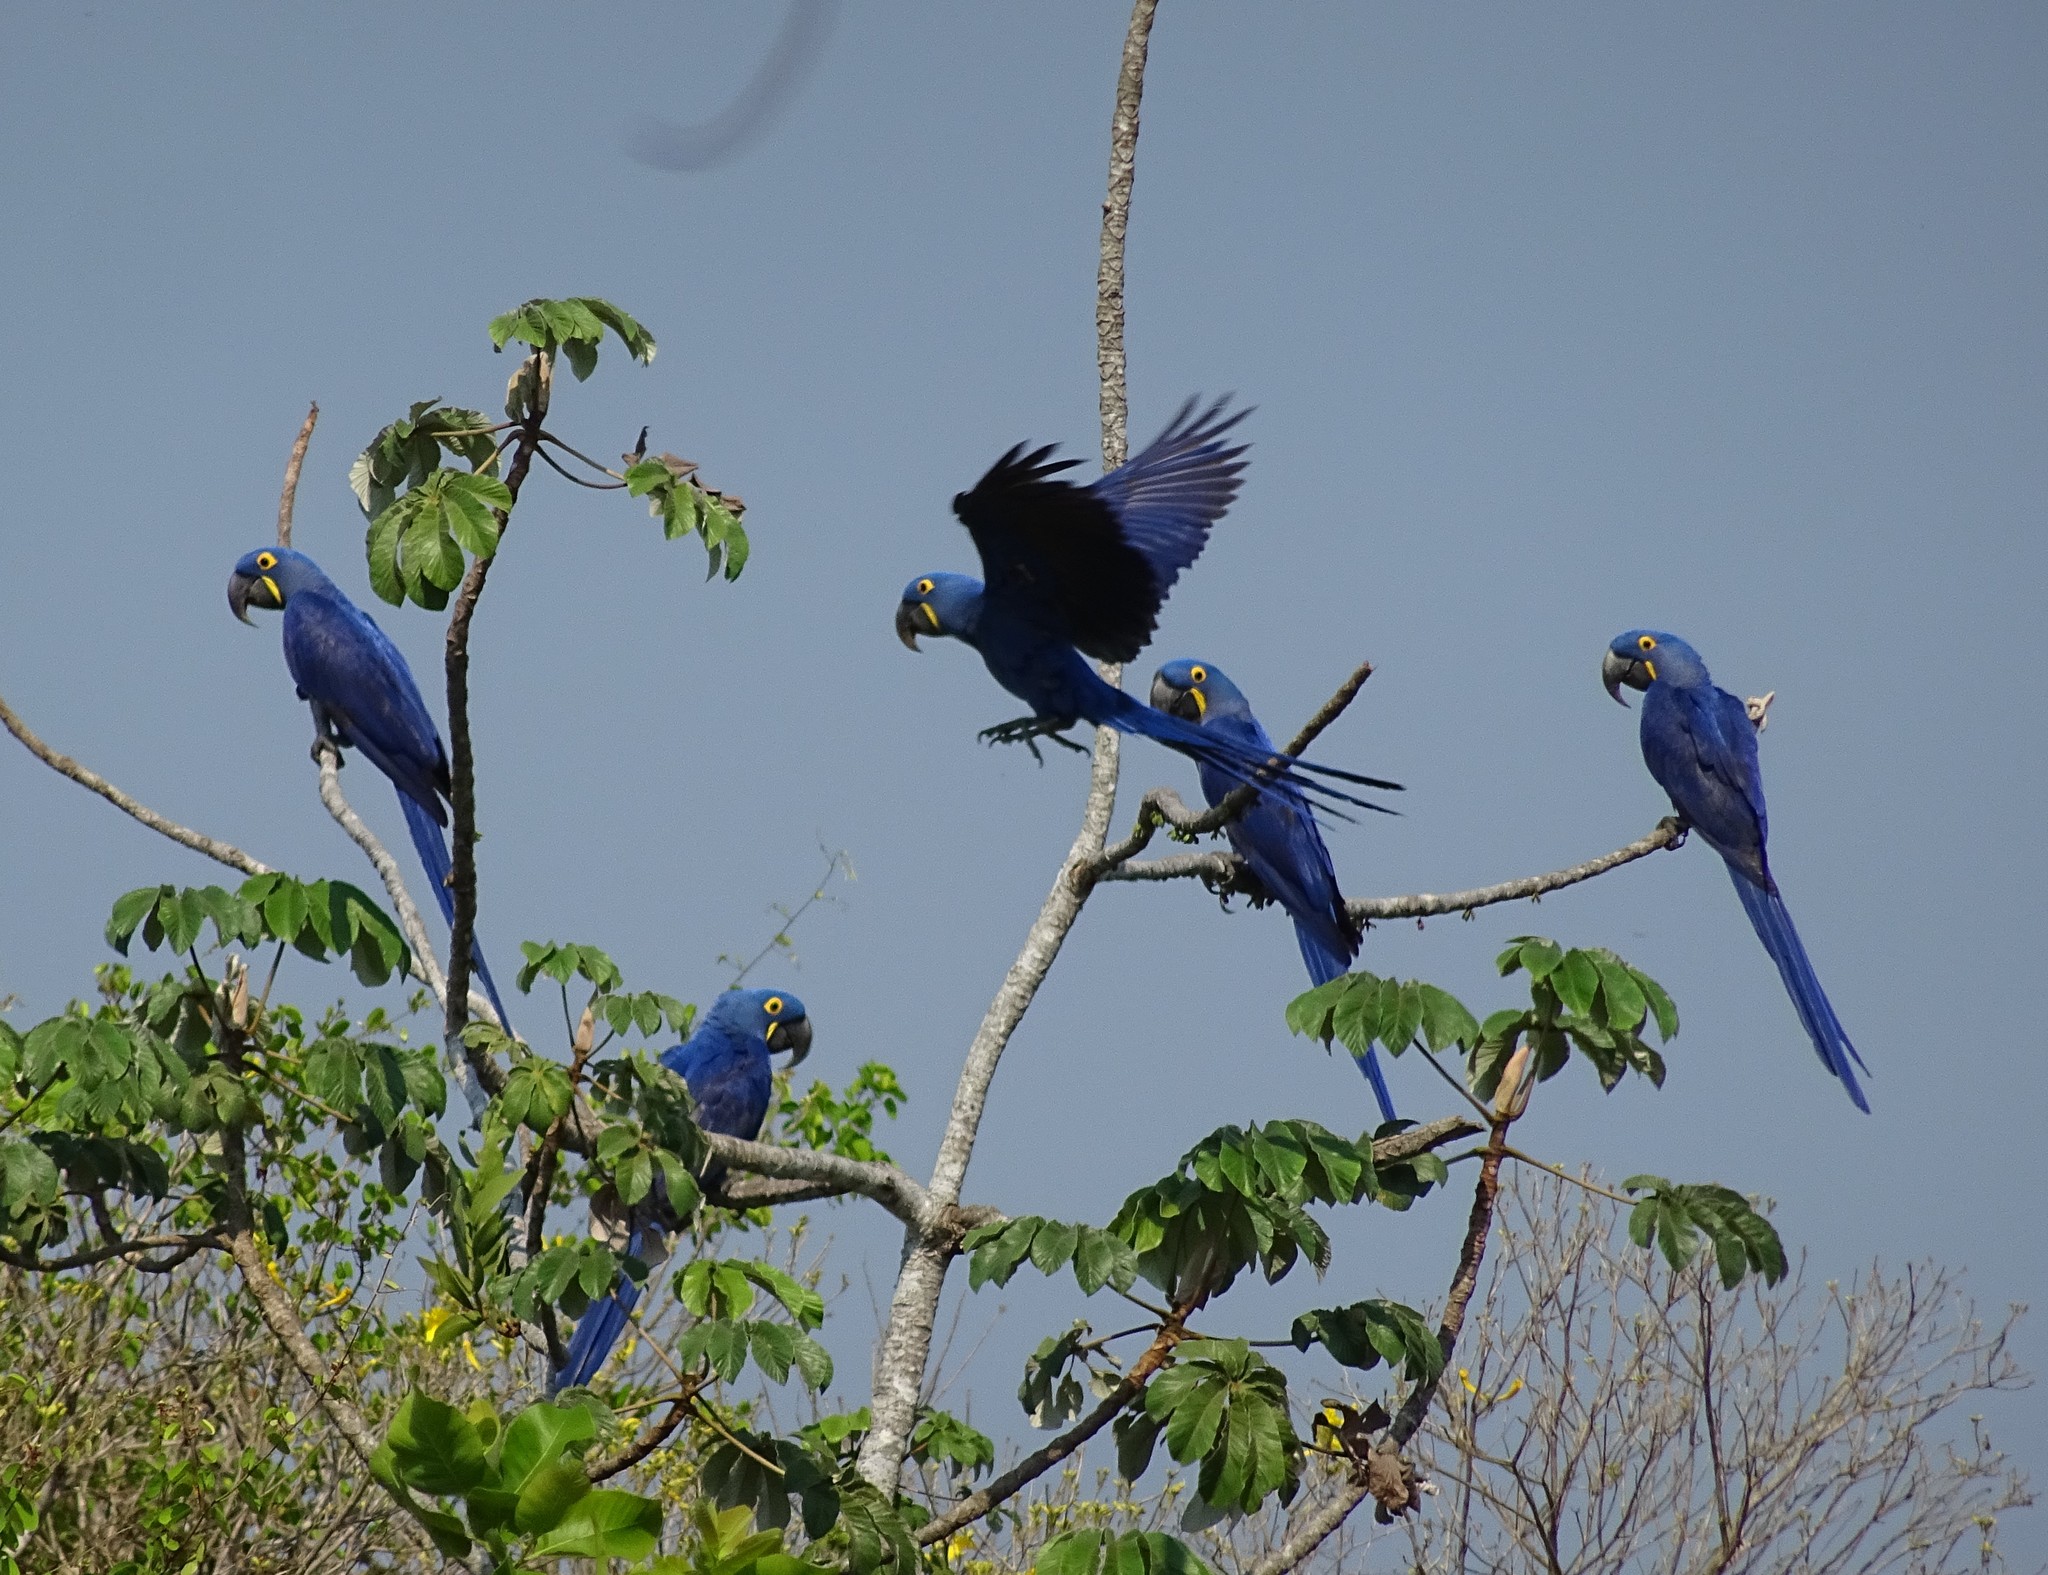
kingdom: Animalia
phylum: Chordata
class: Aves
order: Psittaciformes
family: Psittacidae
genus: Anodorhynchus
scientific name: Anodorhynchus hyacinthinus
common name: Hyacinth macaw
